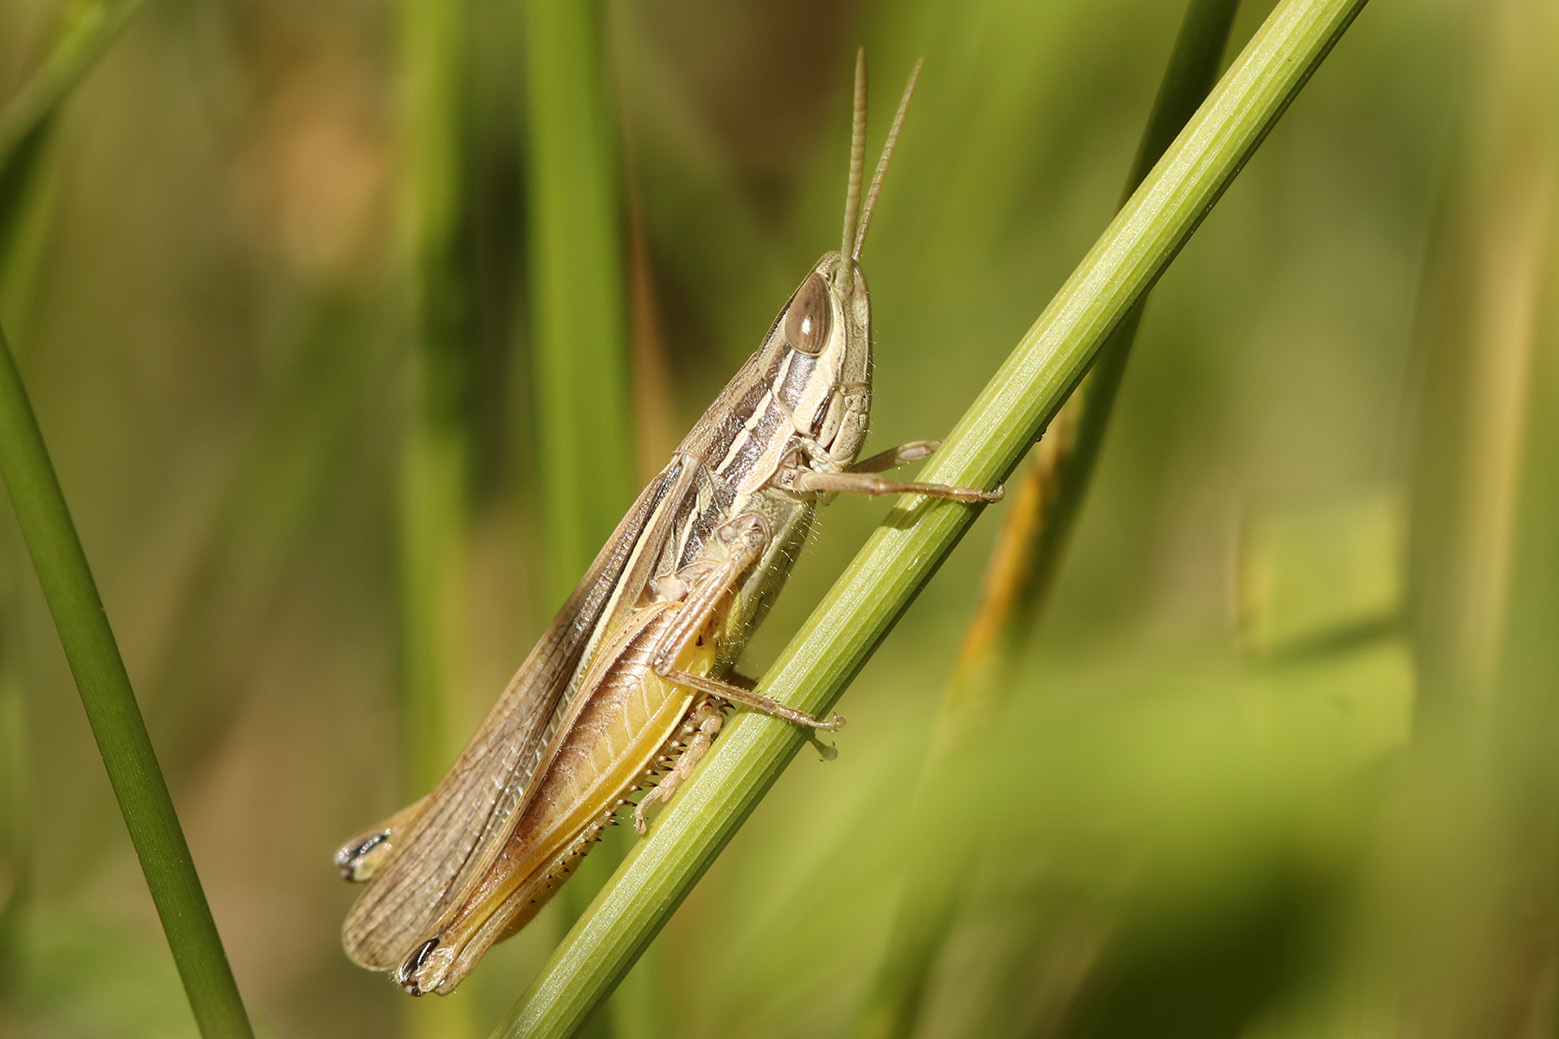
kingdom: Animalia
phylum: Arthropoda
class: Insecta
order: Orthoptera
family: Acrididae
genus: Sinipta
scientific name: Sinipta dalmani
